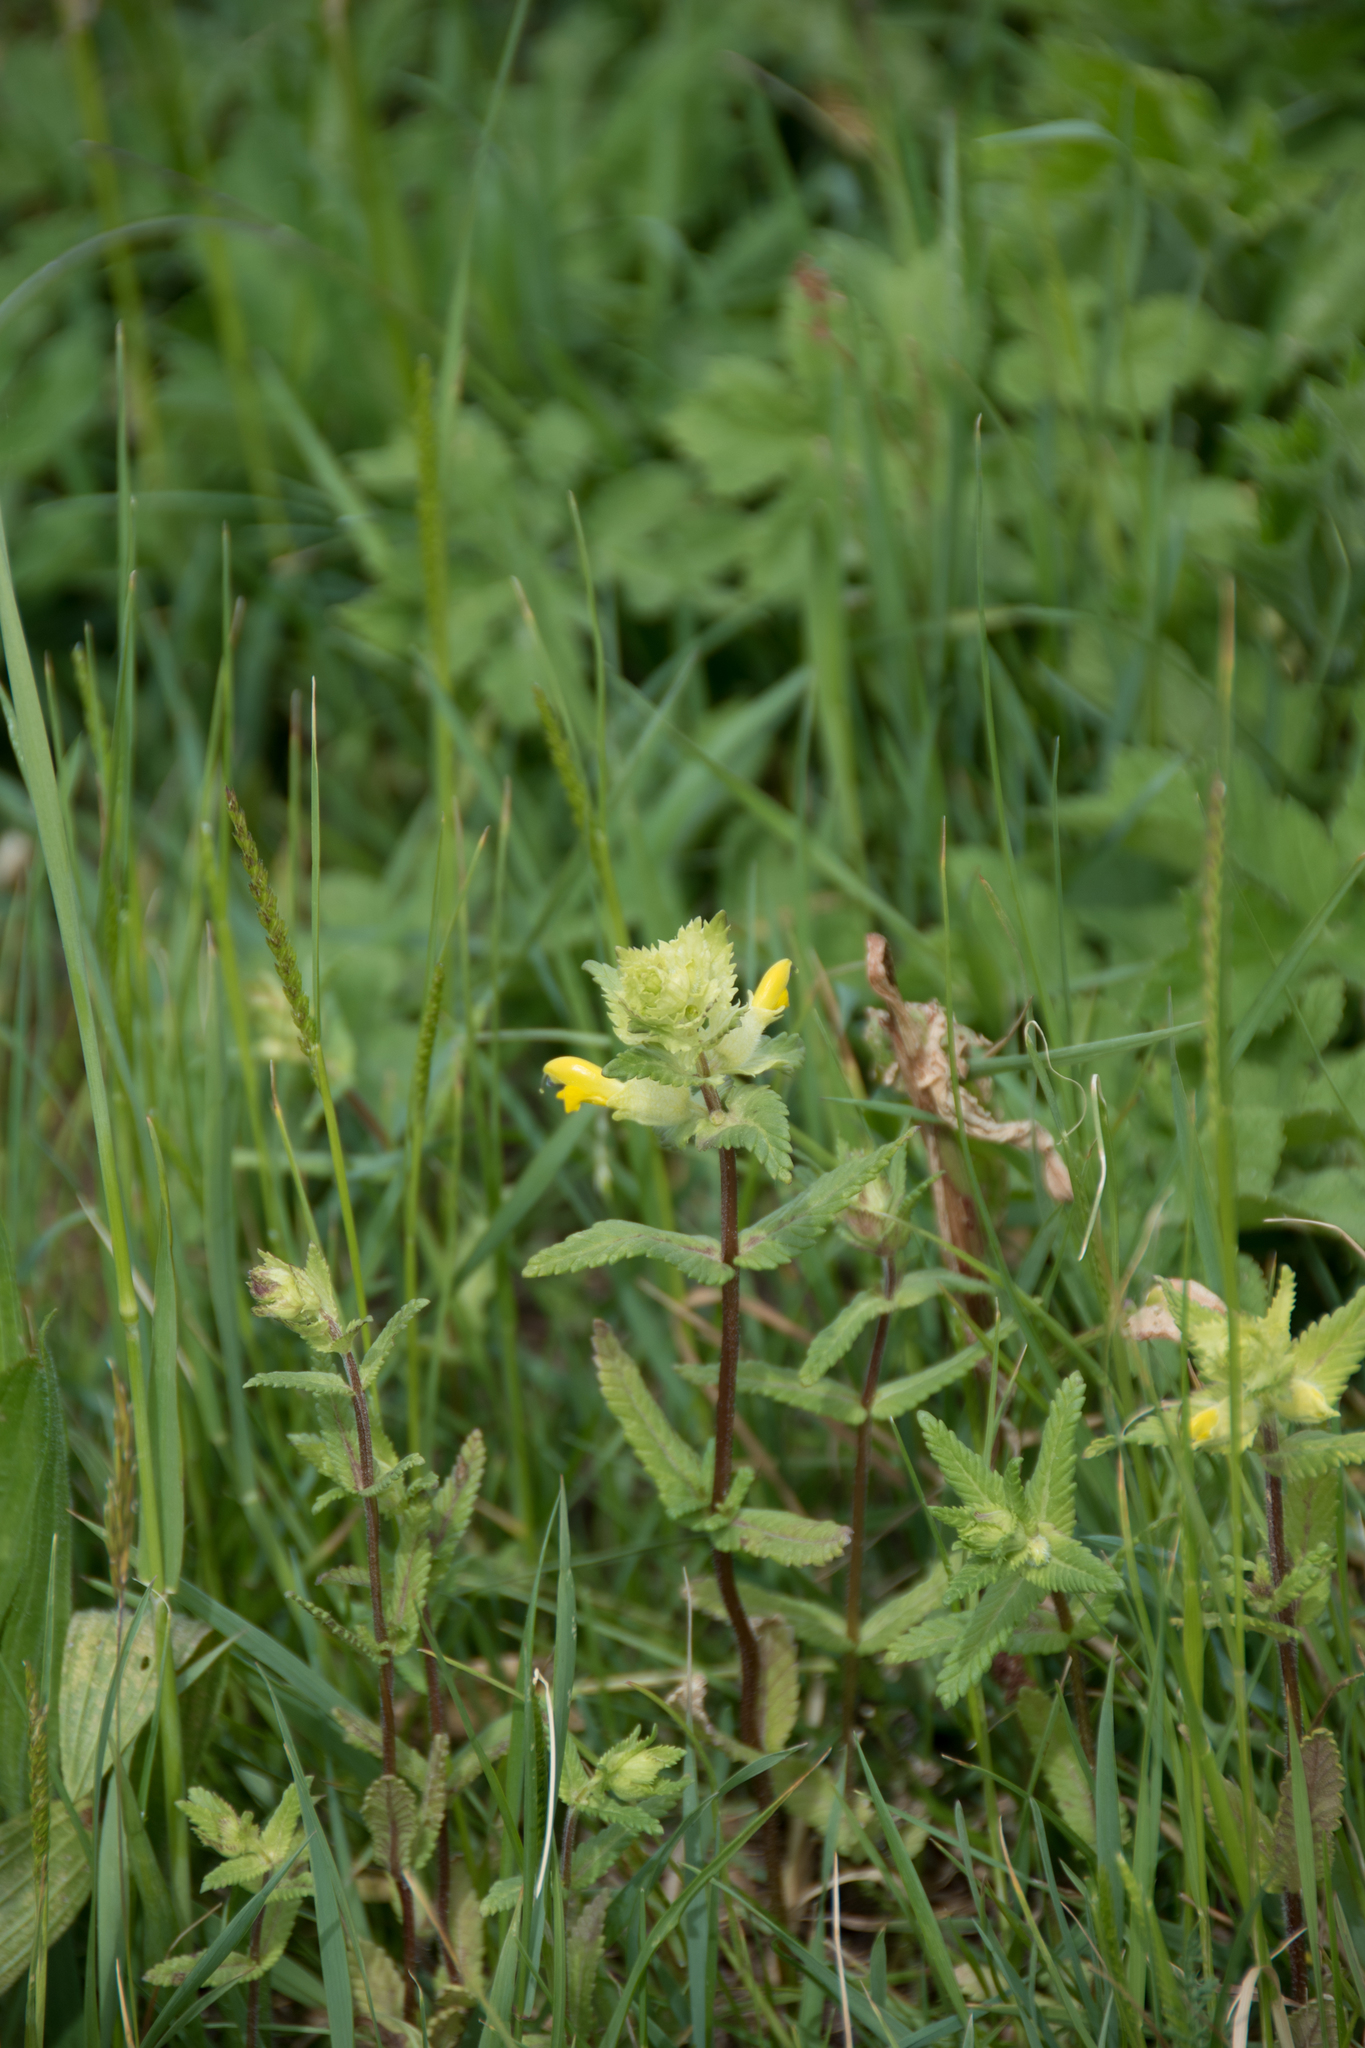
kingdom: Plantae
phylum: Tracheophyta
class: Magnoliopsida
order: Lamiales
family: Orobanchaceae
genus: Rhinanthus
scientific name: Rhinanthus alectorolophus
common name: Greater yellow-rattle
